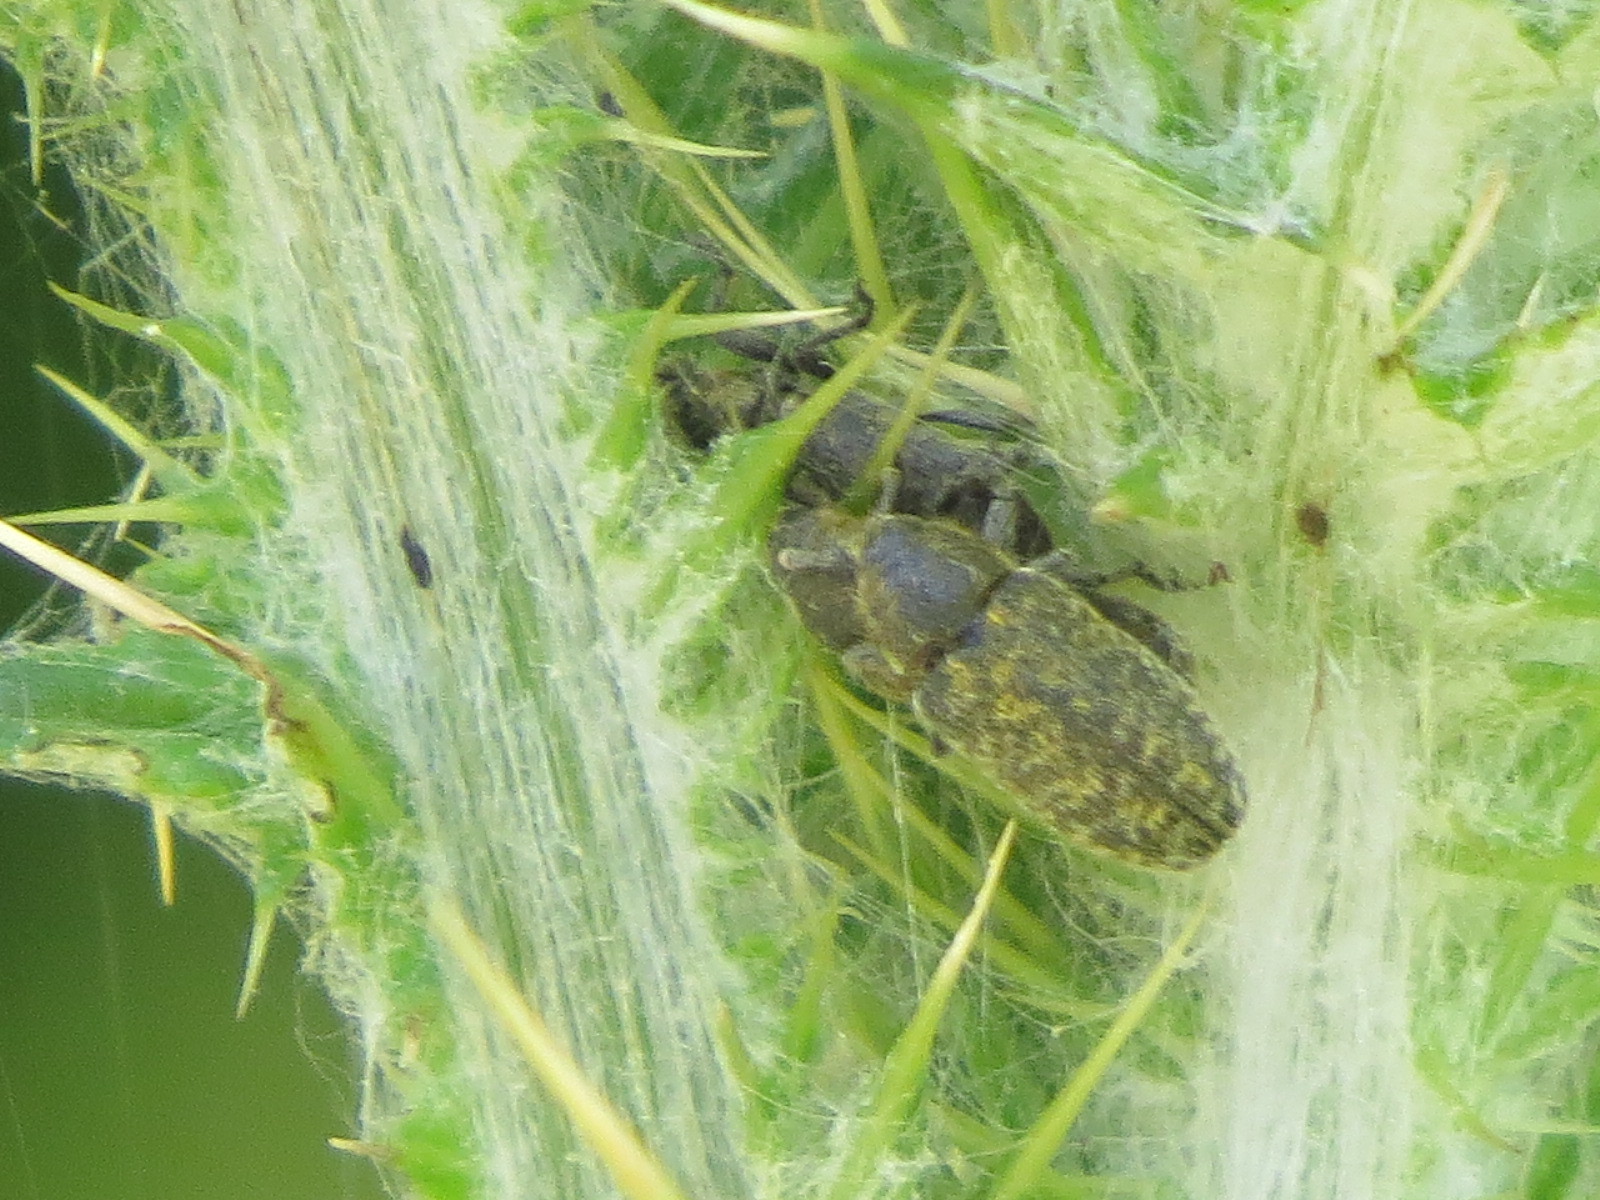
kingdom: Animalia
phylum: Arthropoda
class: Insecta
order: Coleoptera
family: Curculionidae
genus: Rhinocyllus
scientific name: Rhinocyllus conicus
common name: Weevil
